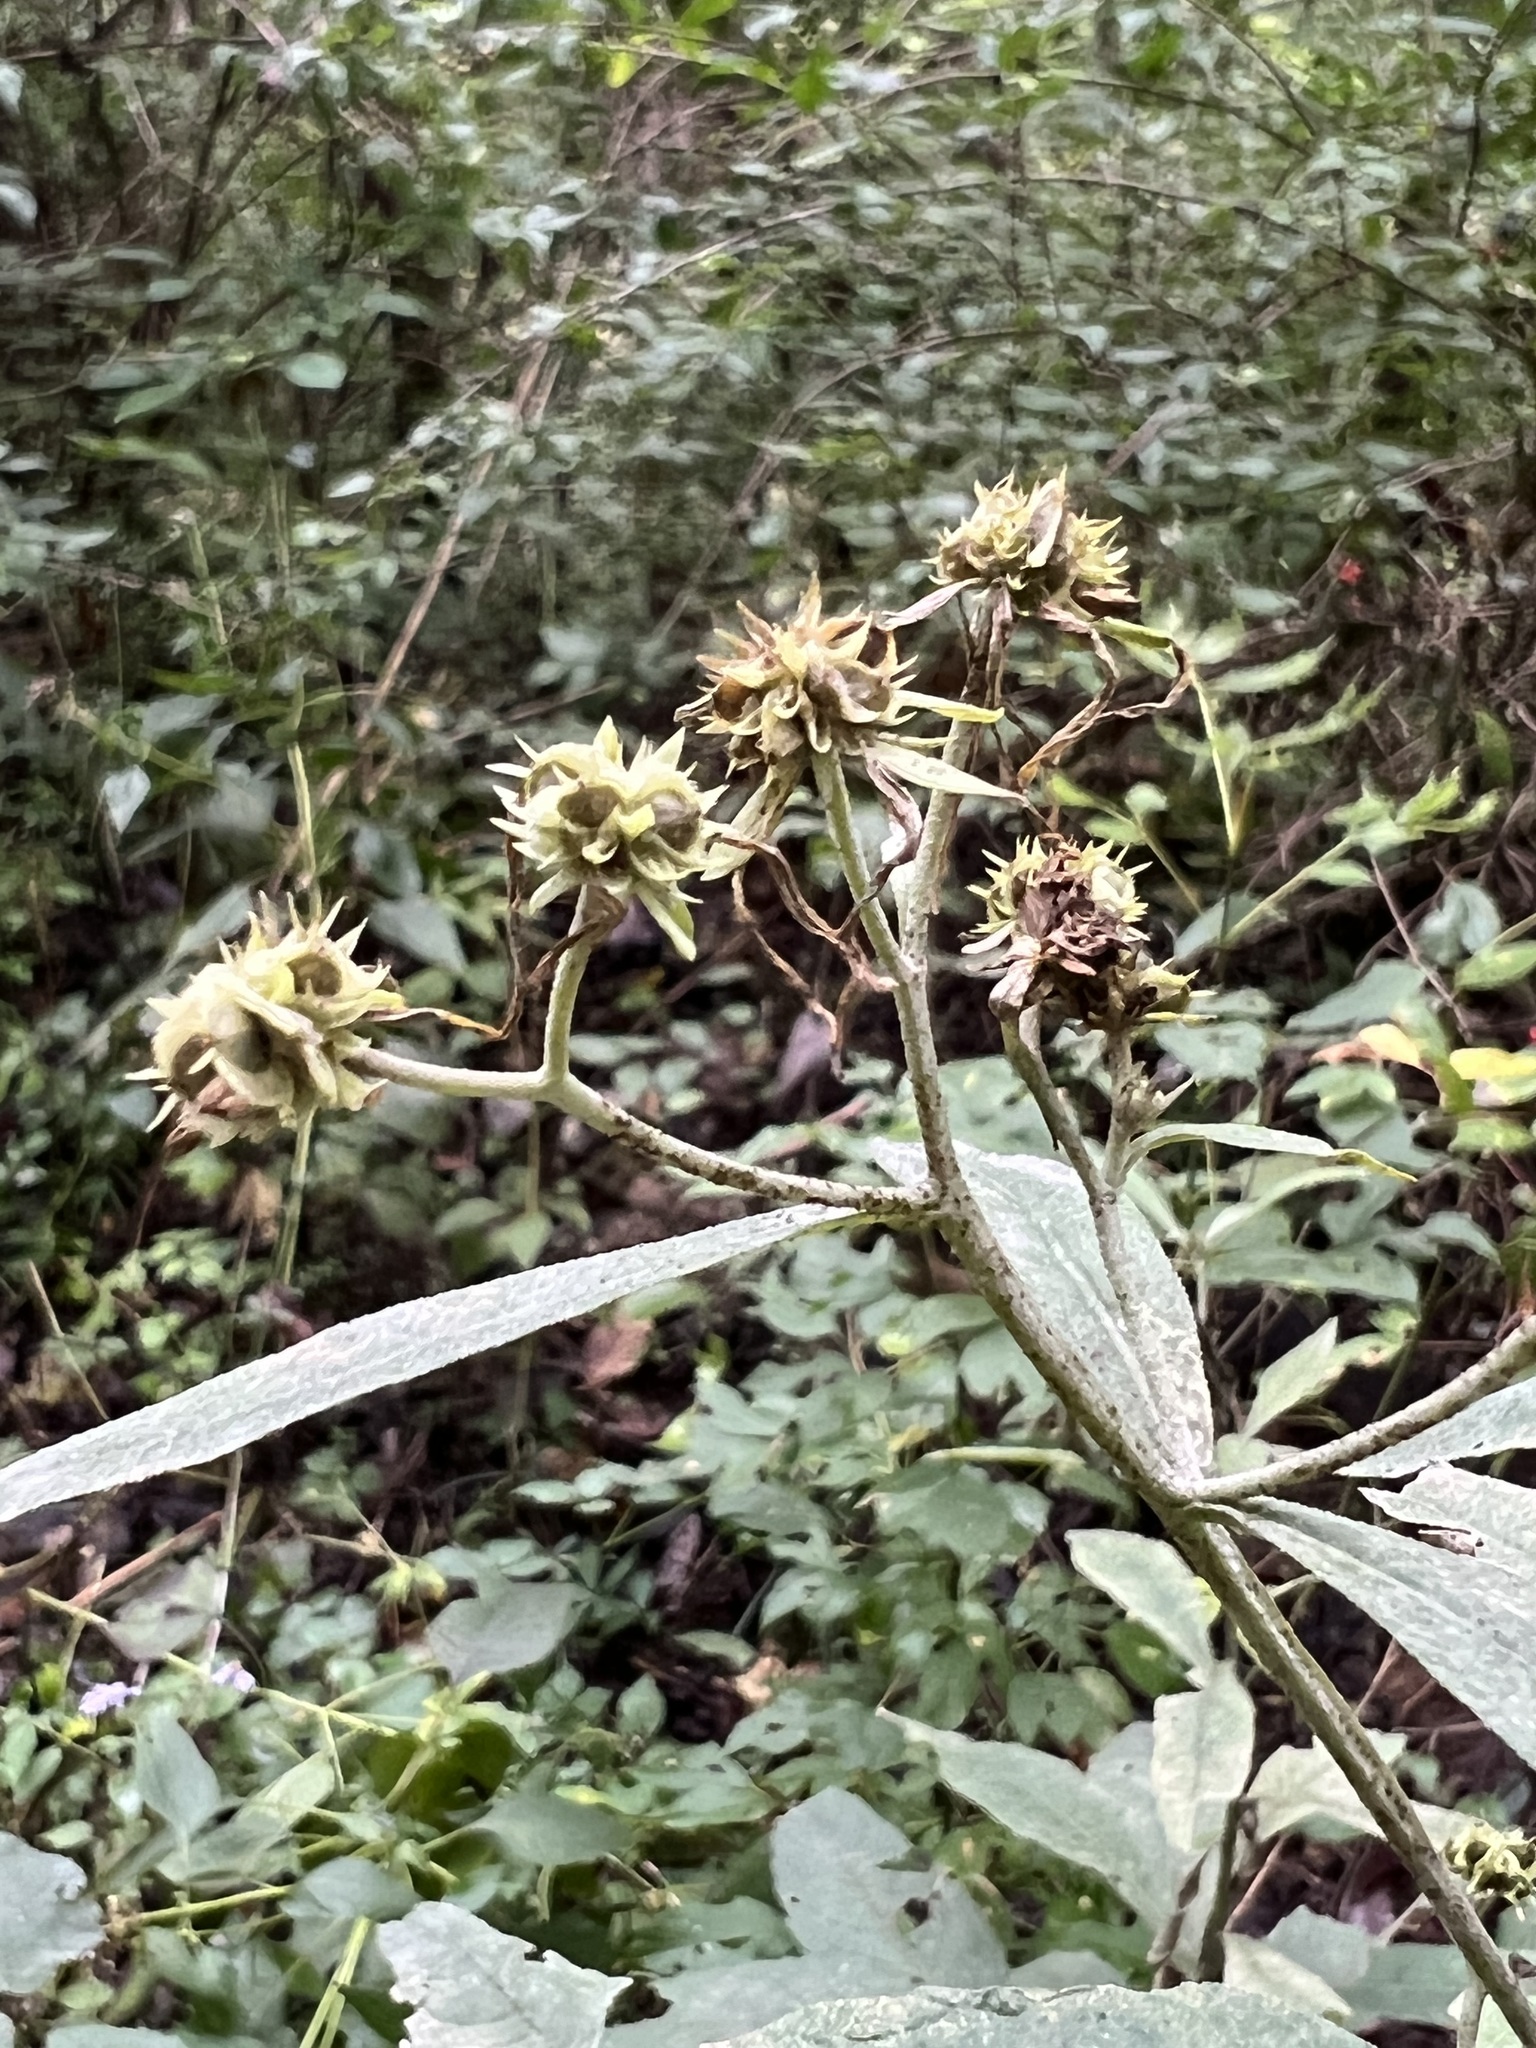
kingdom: Plantae
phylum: Tracheophyta
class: Magnoliopsida
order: Asterales
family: Asteraceae
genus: Verbesina
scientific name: Verbesina alternifolia
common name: Wingstem
